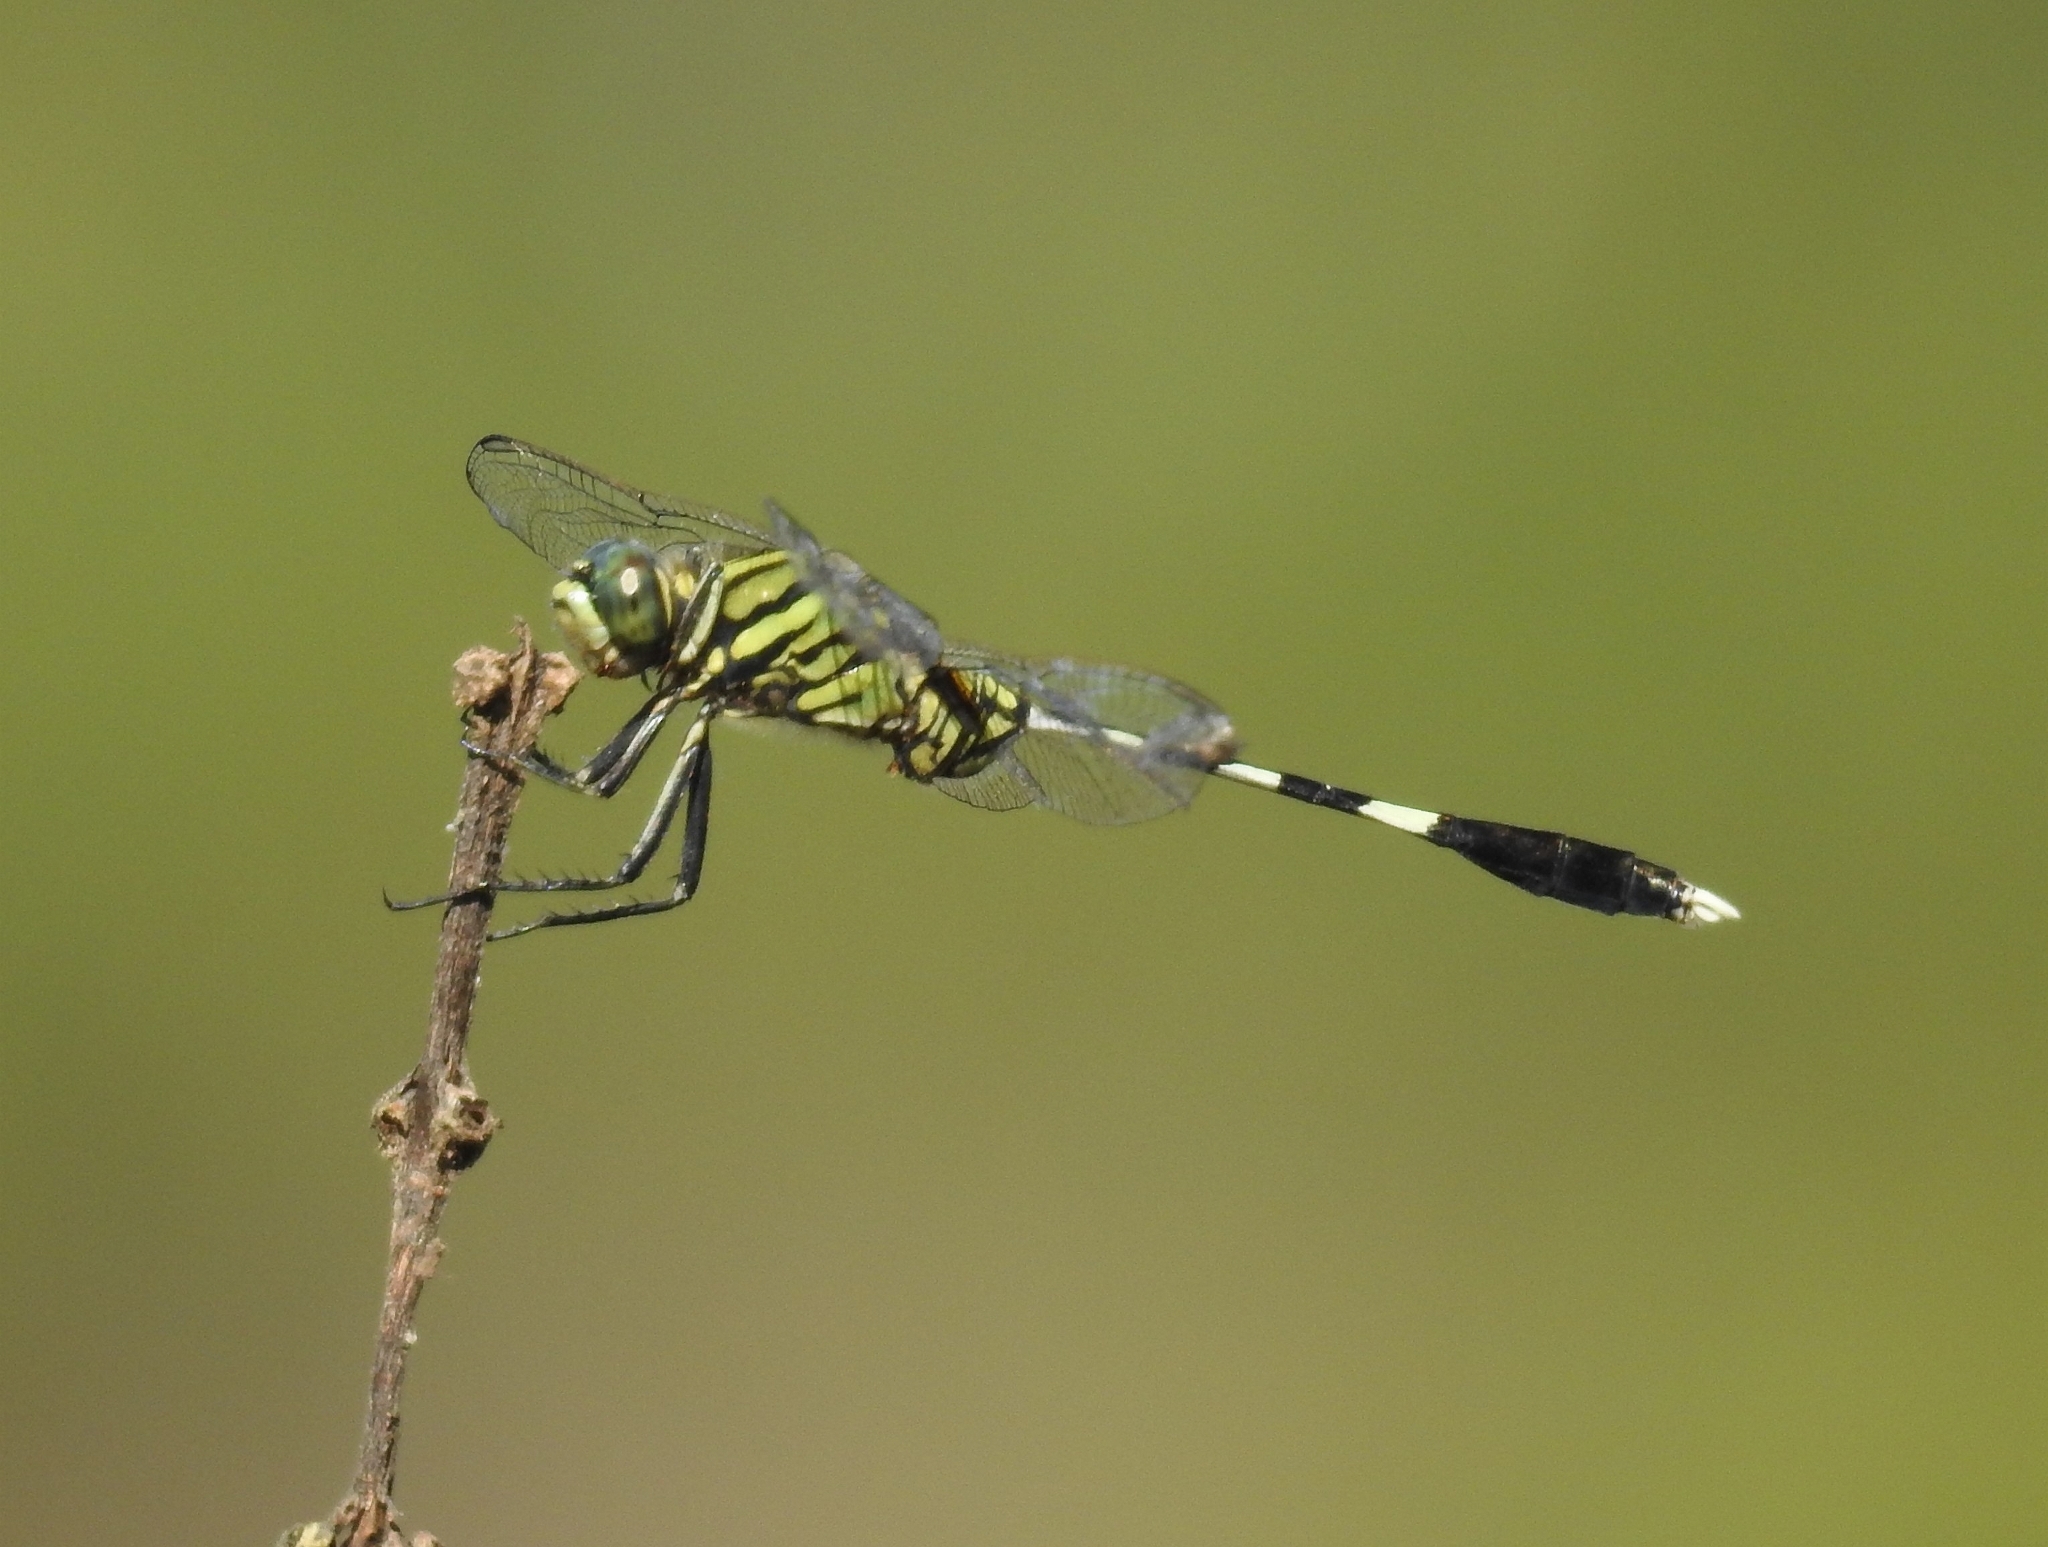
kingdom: Animalia
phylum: Arthropoda
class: Insecta
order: Odonata
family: Libellulidae
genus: Orthetrum
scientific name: Orthetrum sabina
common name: Slender skimmer
